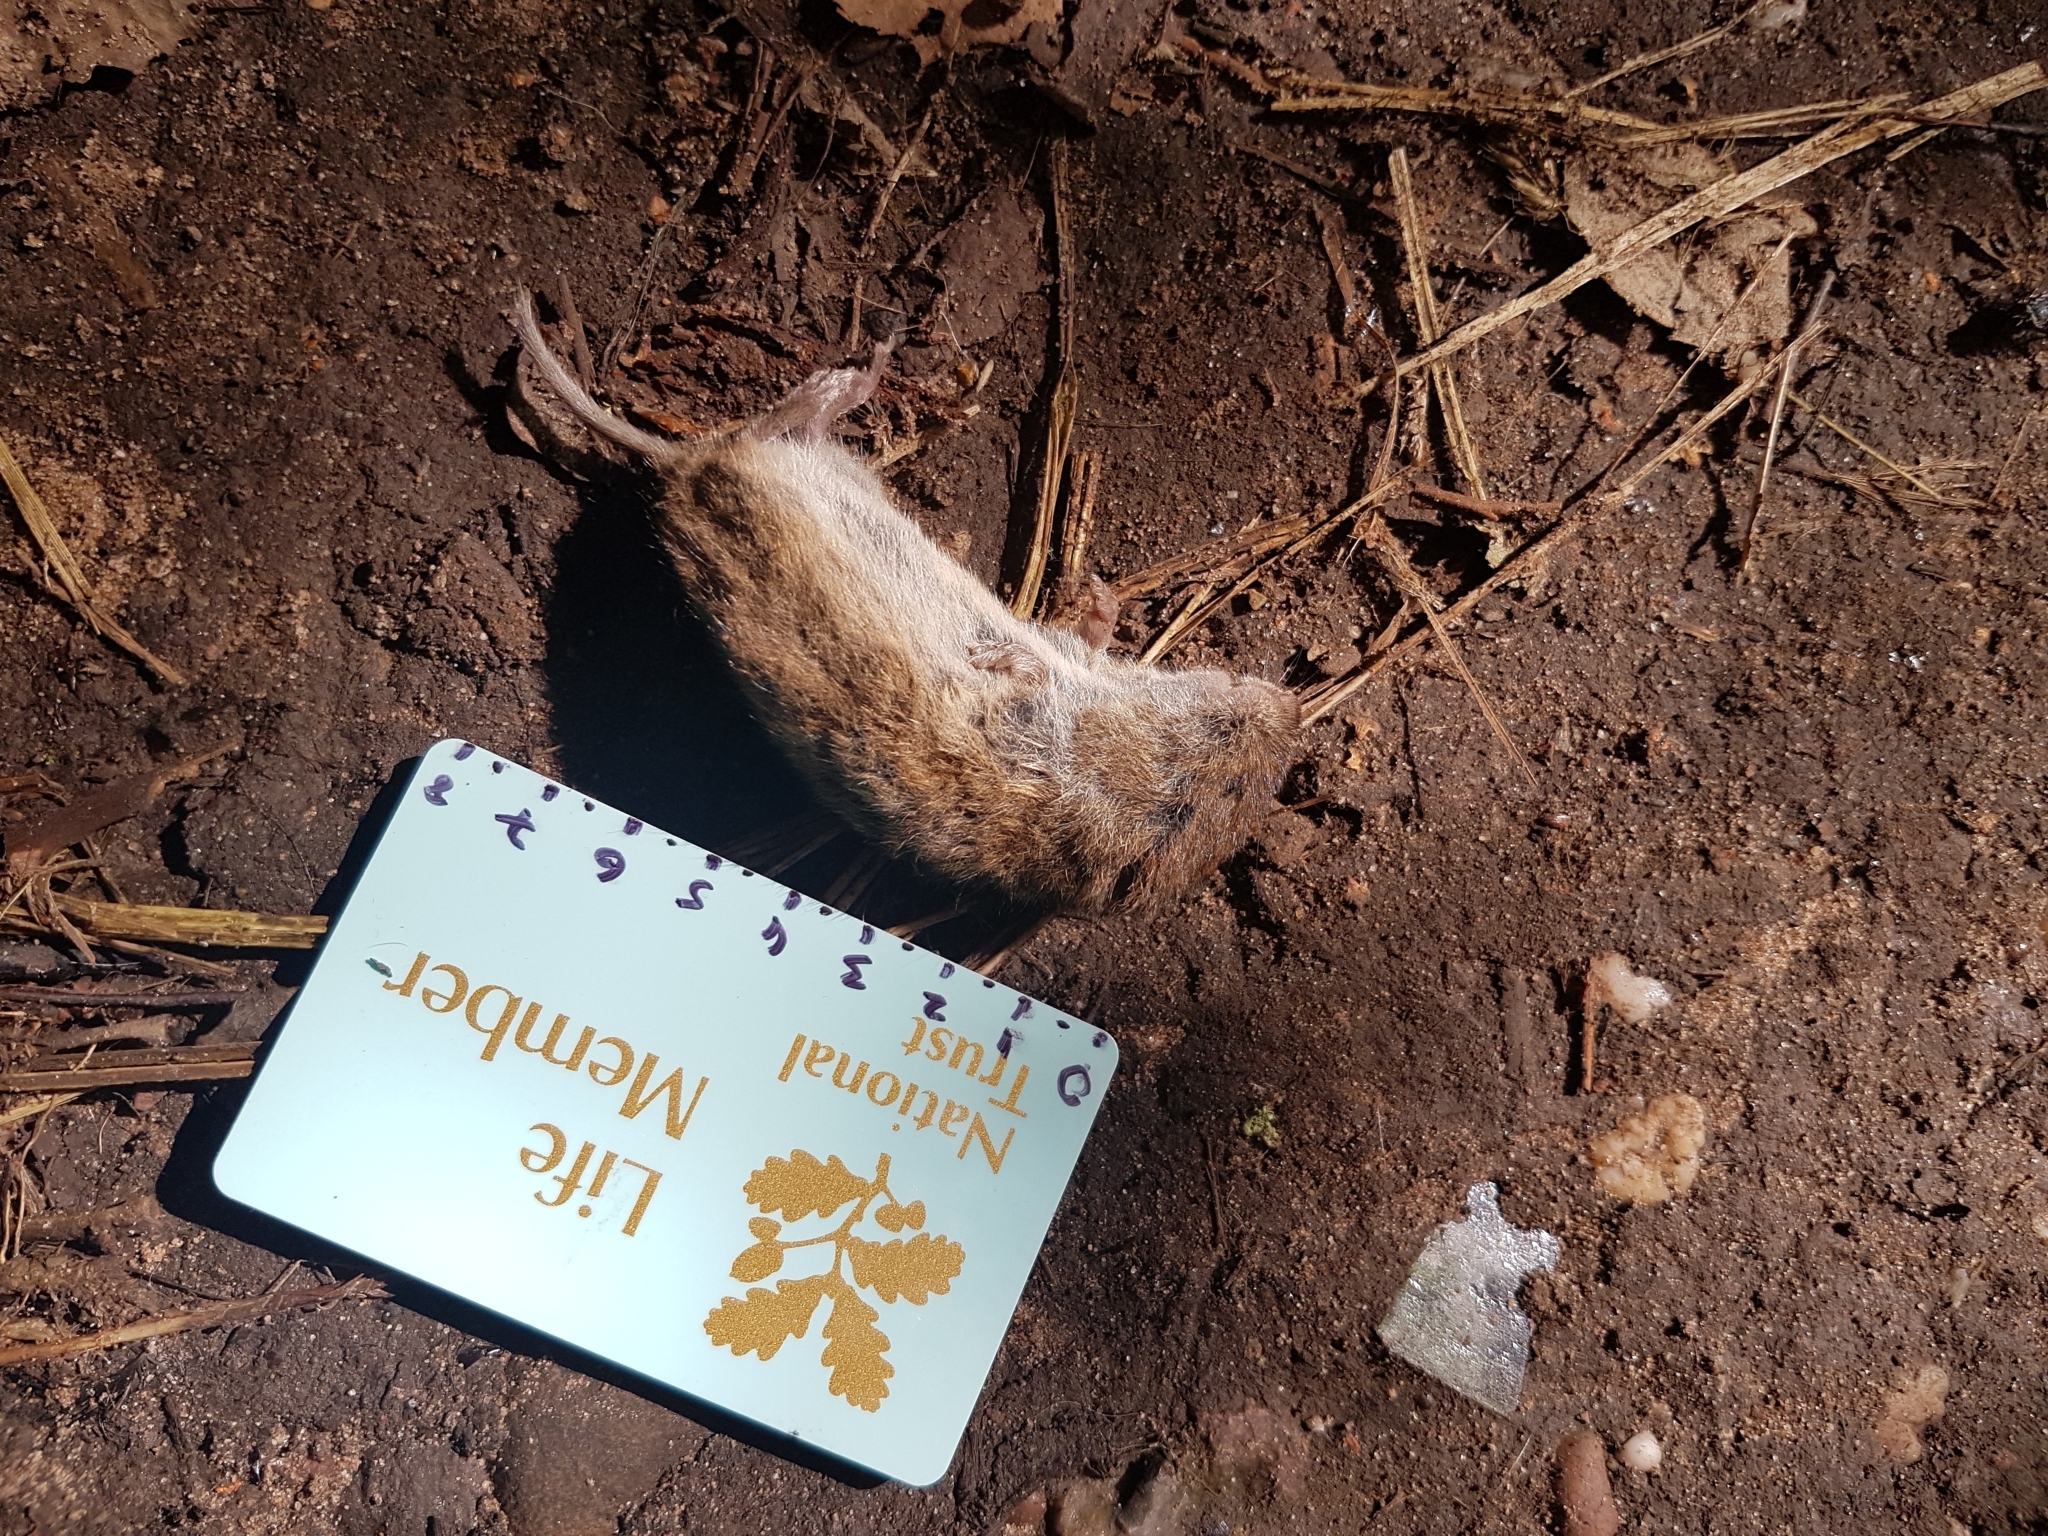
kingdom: Animalia
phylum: Chordata
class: Mammalia
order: Rodentia
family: Cricetidae
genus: Microtus
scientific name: Microtus agrestis
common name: Field vole
